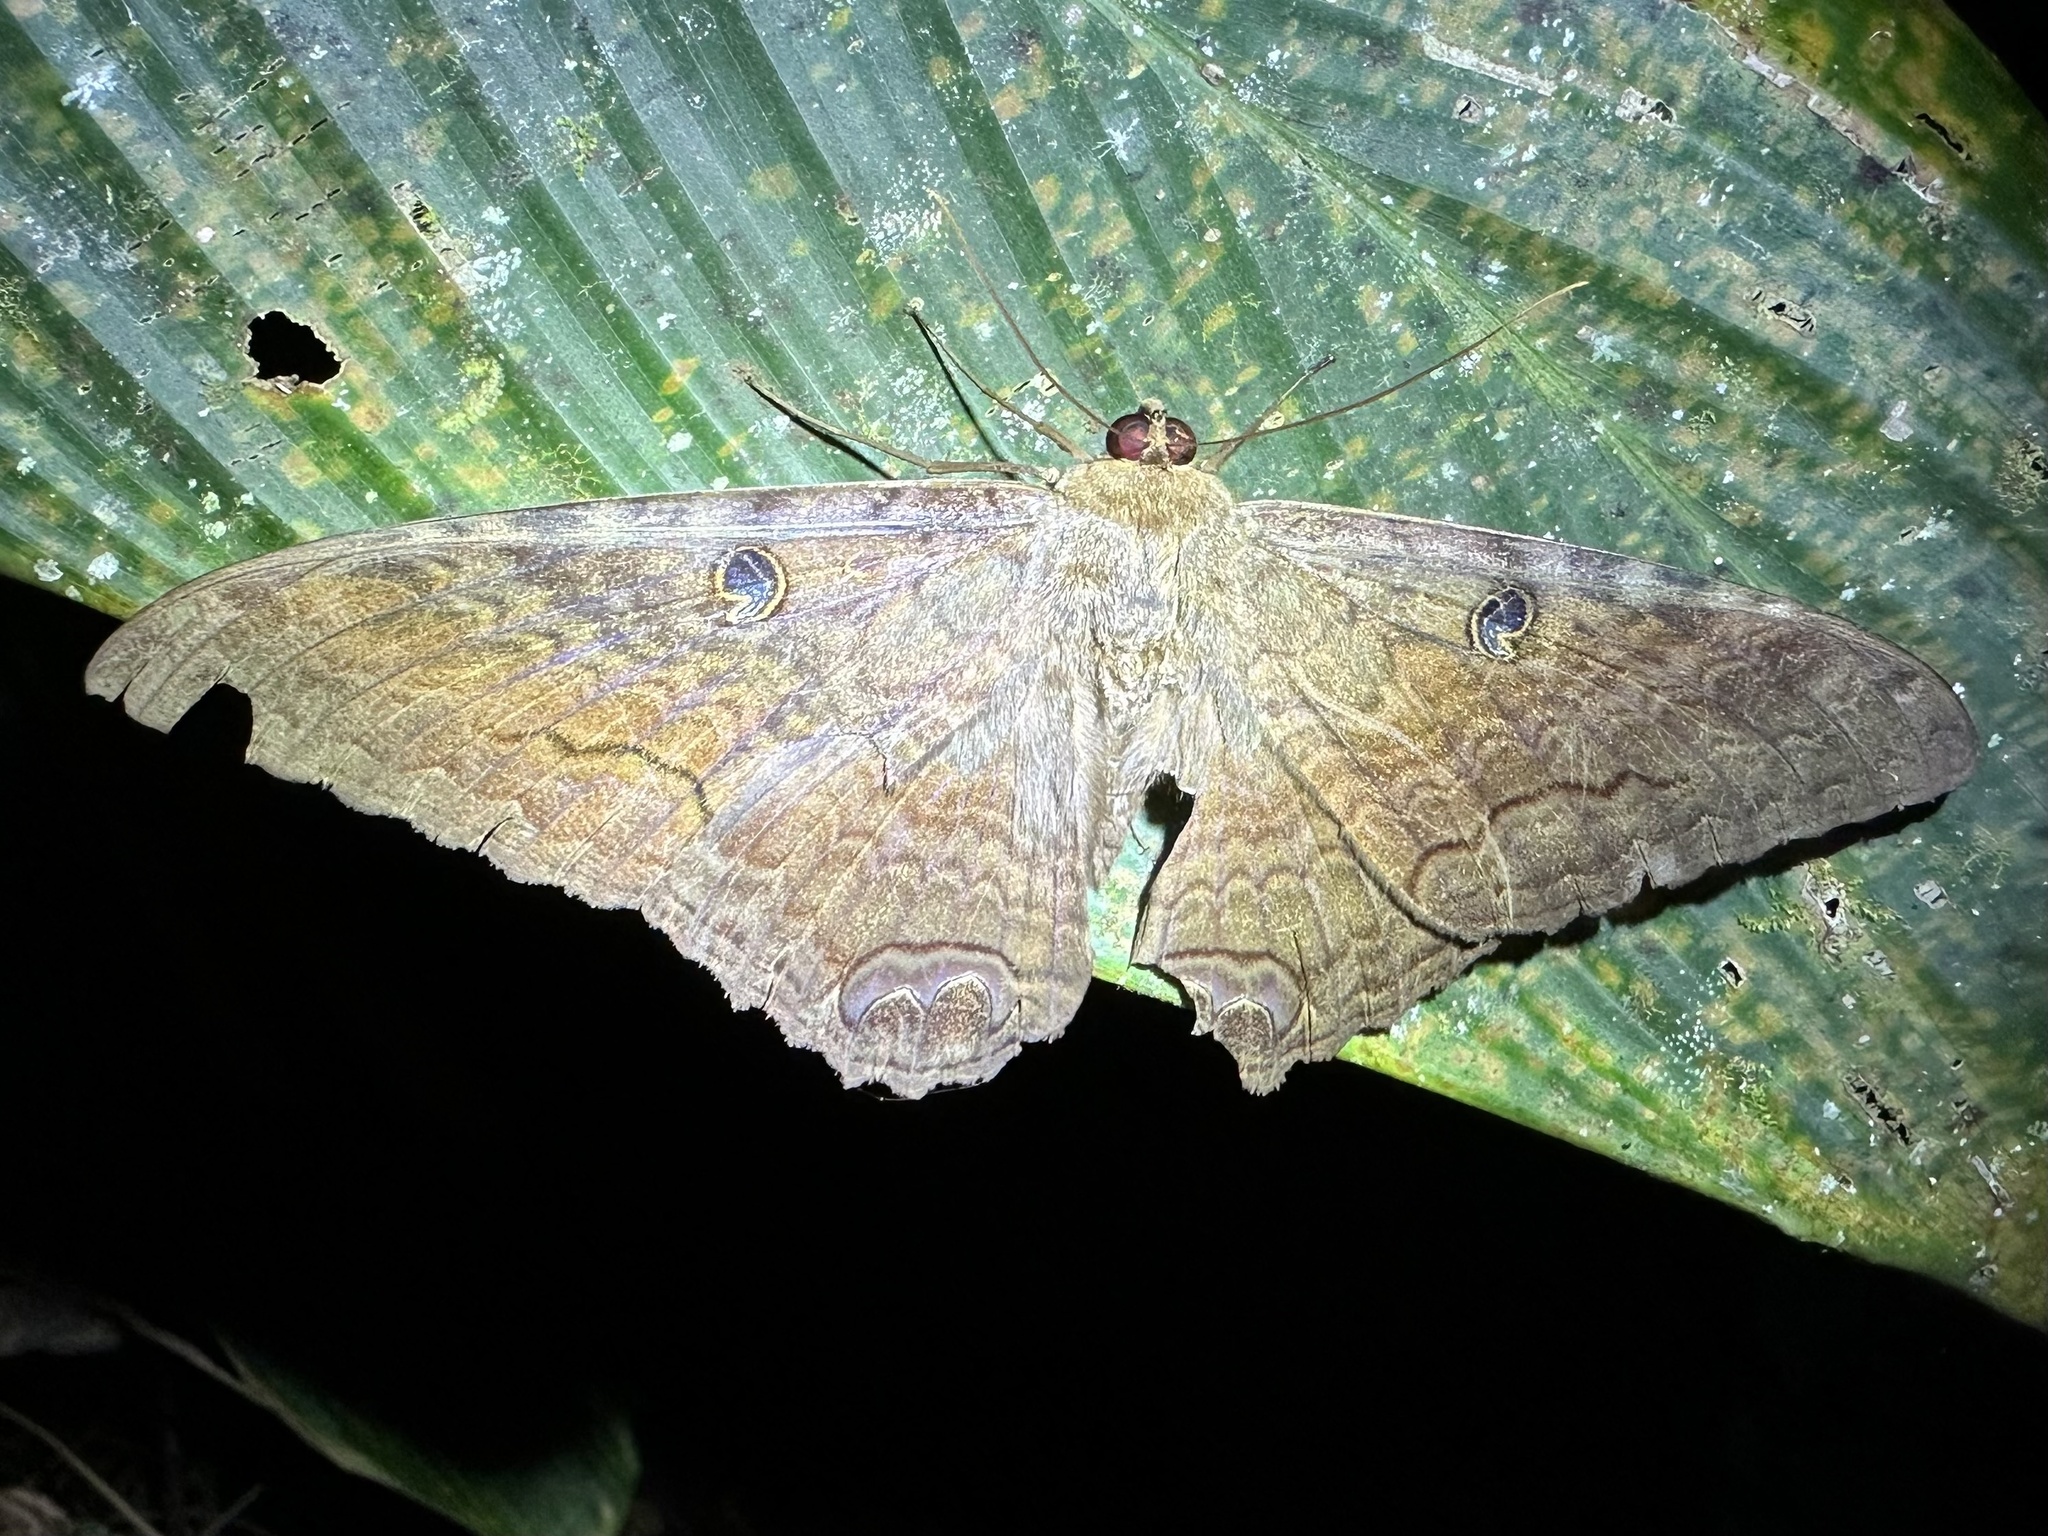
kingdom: Animalia
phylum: Arthropoda
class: Insecta
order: Lepidoptera
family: Erebidae
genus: Ascalapha
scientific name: Ascalapha odorata
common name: Black witch
